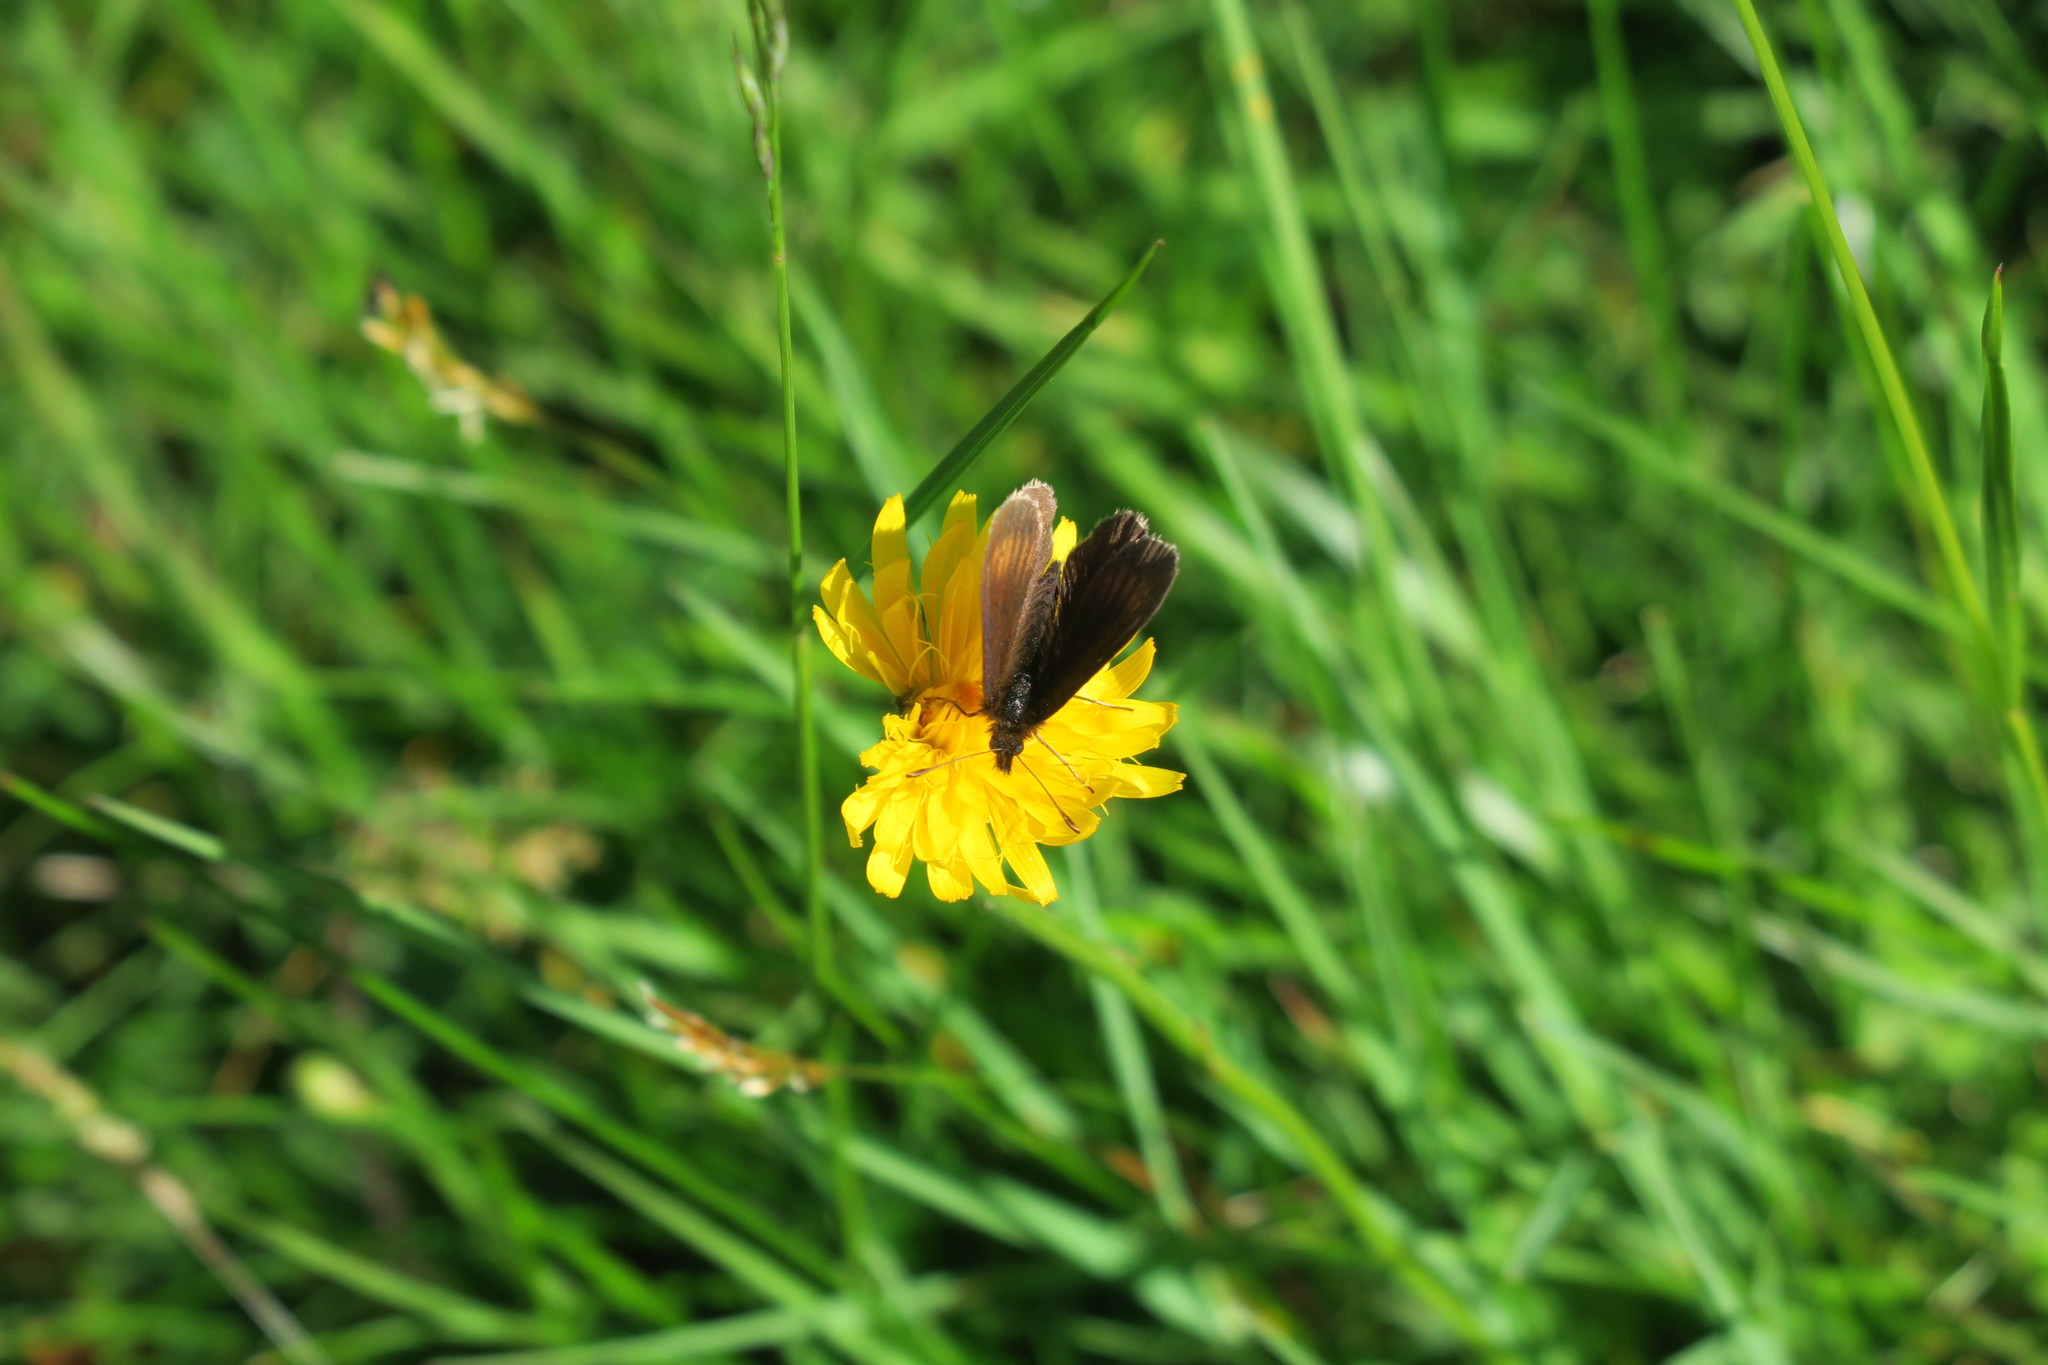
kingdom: Animalia
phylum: Arthropoda
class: Insecta
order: Lepidoptera
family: Nymphalidae
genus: Erebia
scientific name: Erebia epiphron
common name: Mountain ringlet
